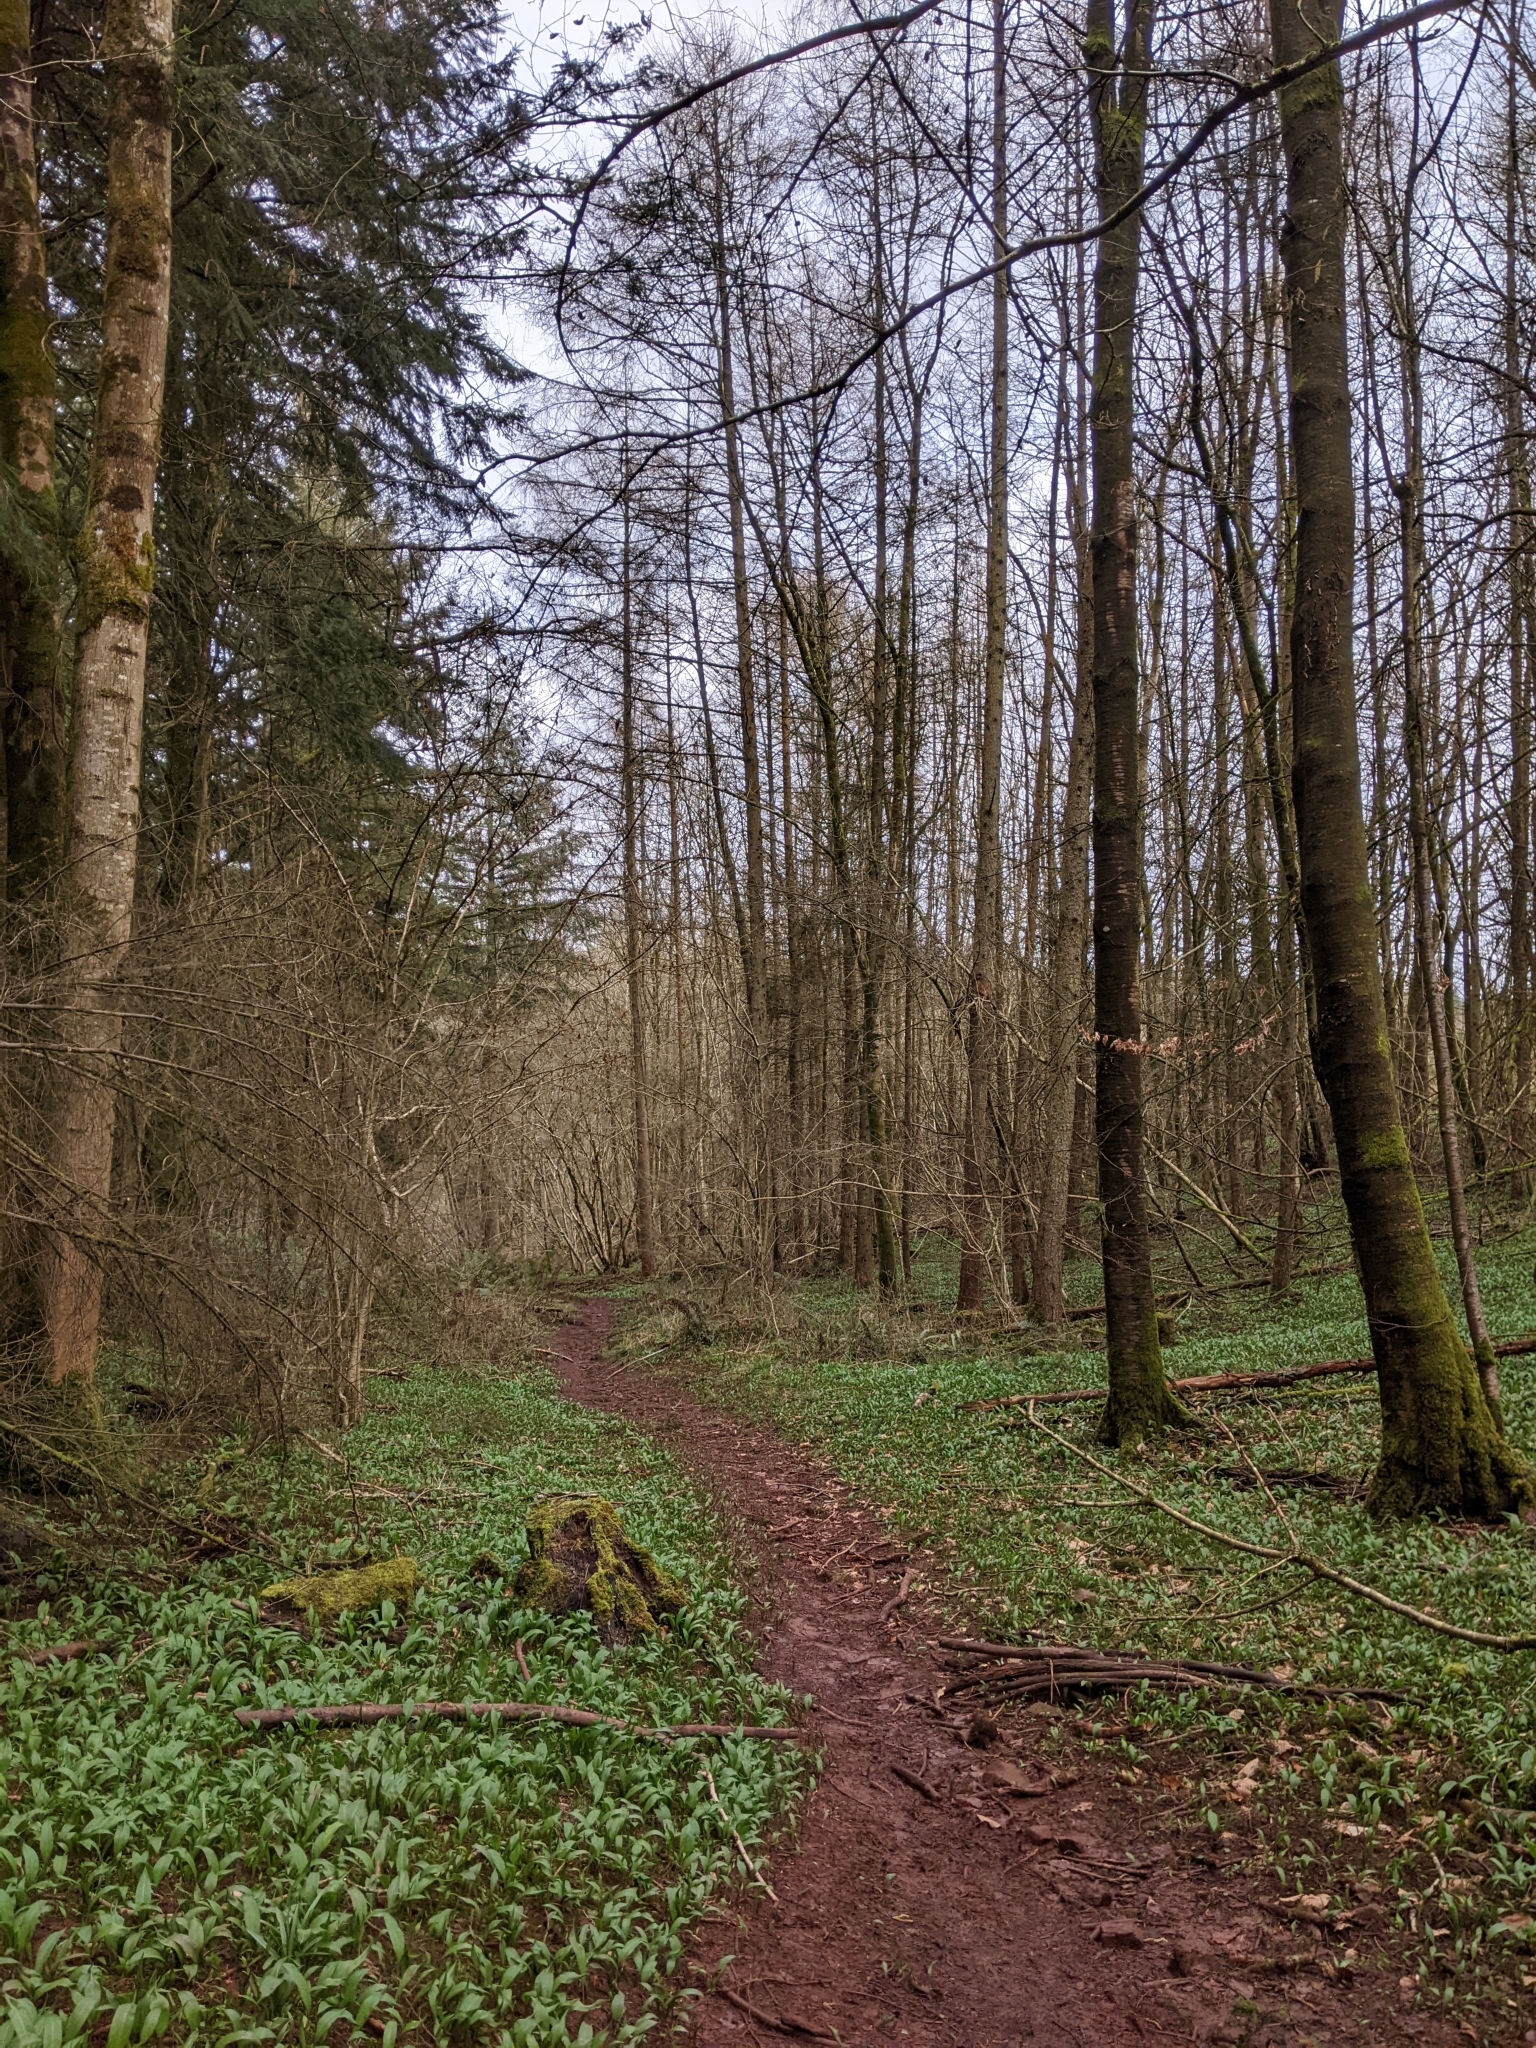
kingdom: Plantae
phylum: Tracheophyta
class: Liliopsida
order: Asparagales
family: Amaryllidaceae
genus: Allium
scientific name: Allium ursinum
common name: Ramsons
